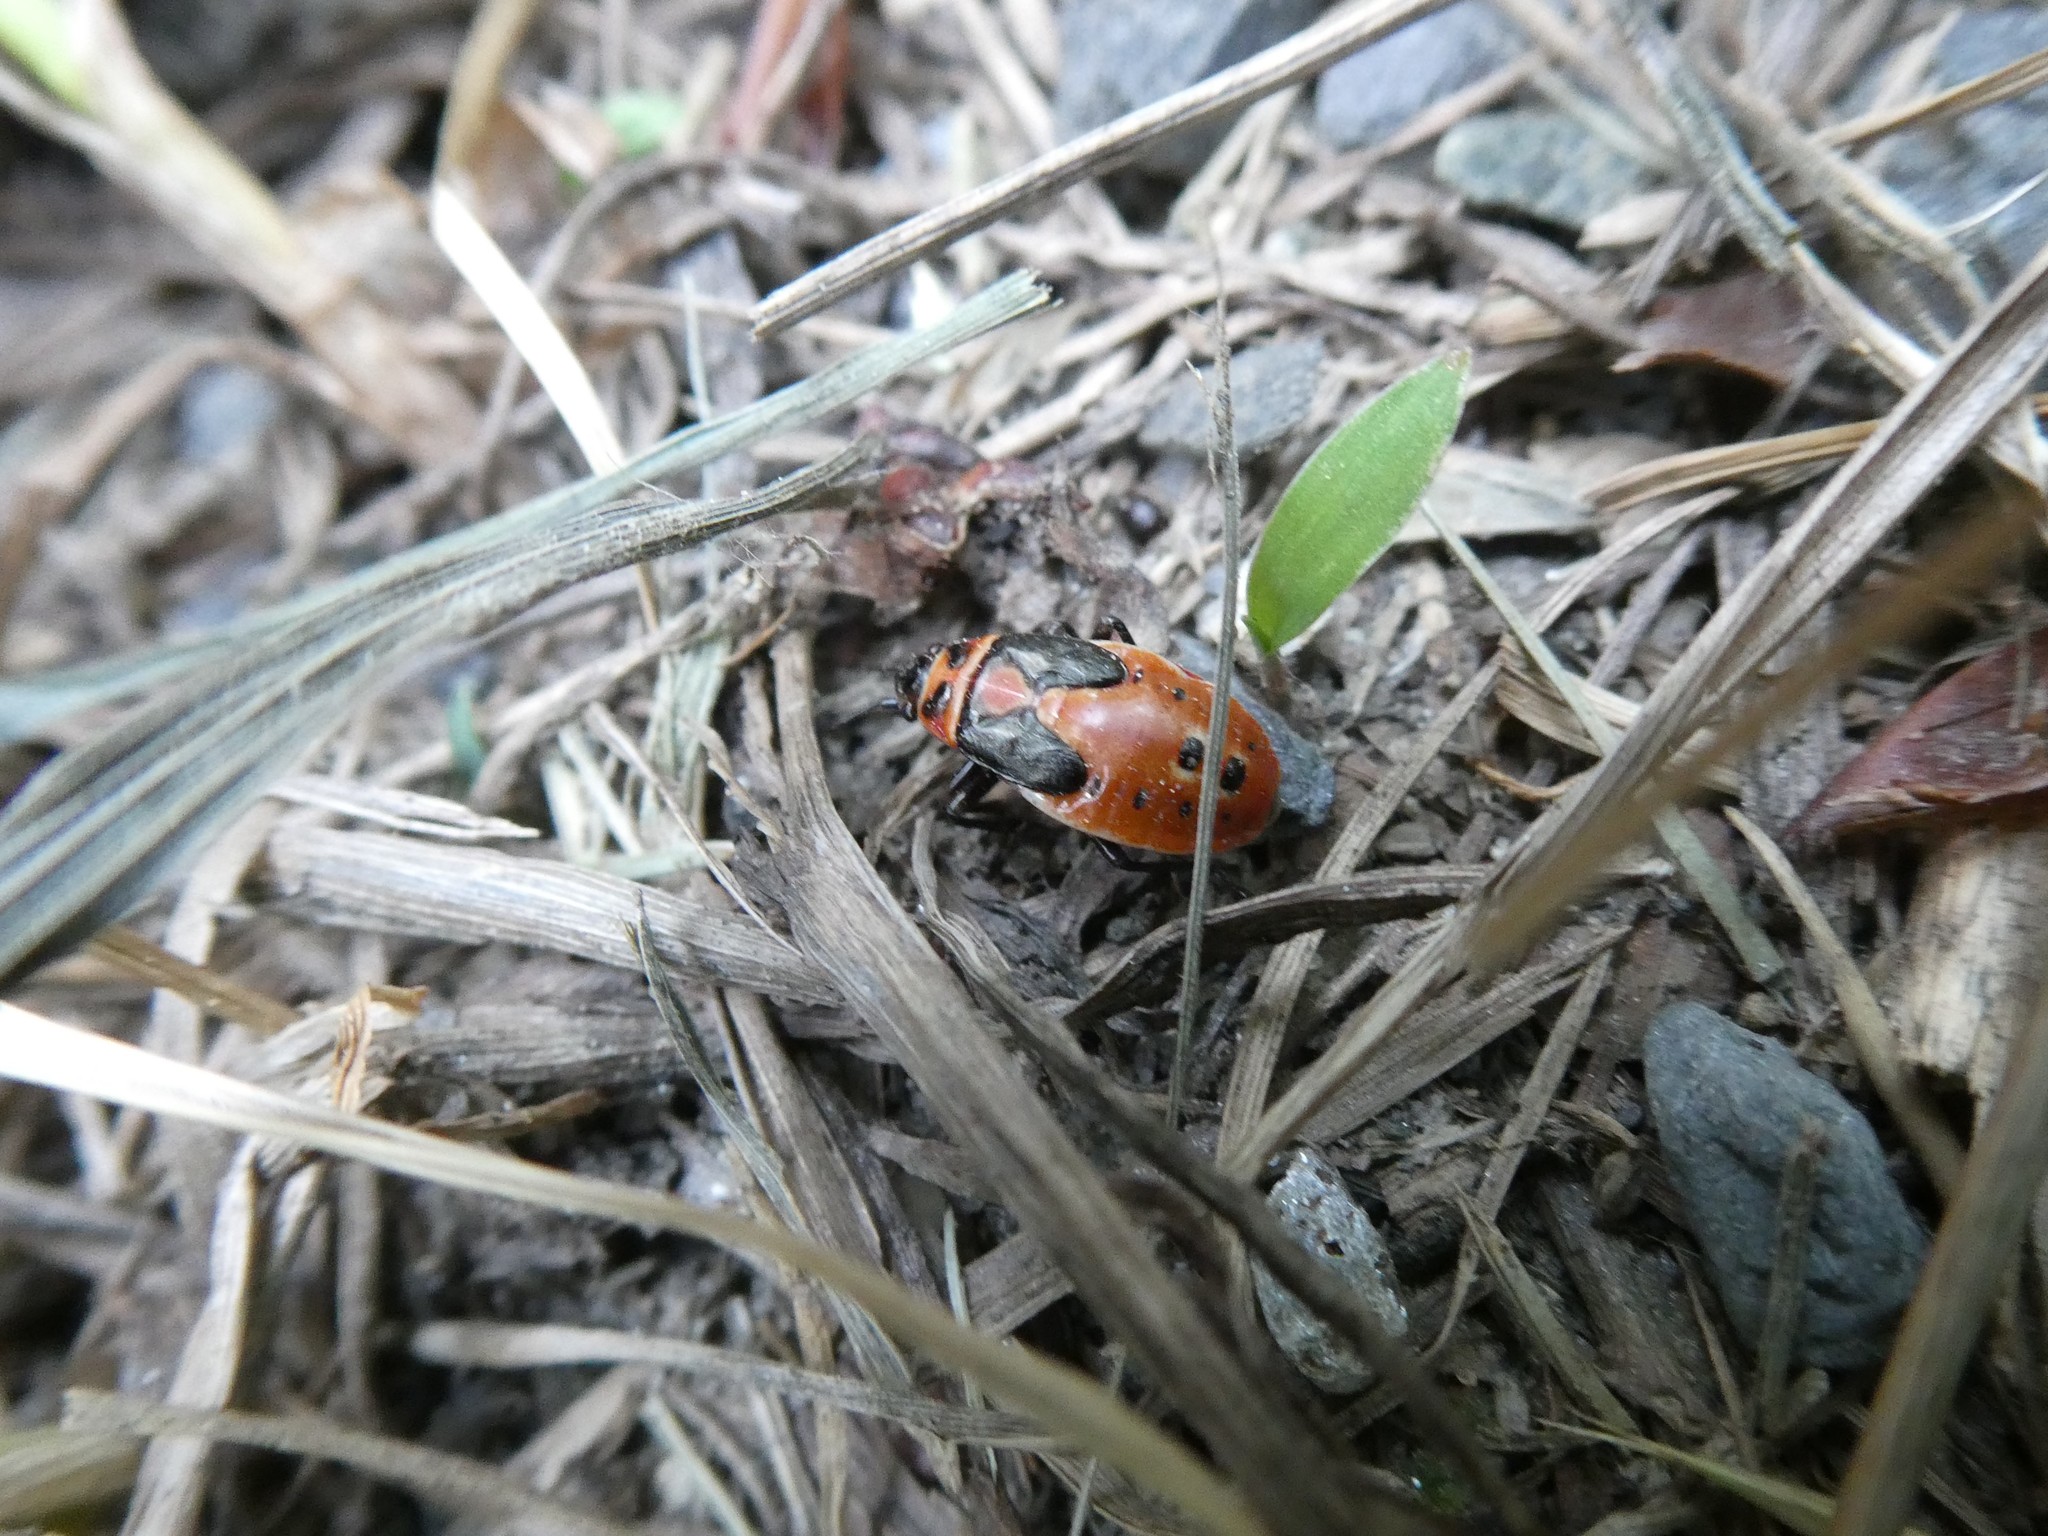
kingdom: Animalia
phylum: Arthropoda
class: Insecta
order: Hemiptera
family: Lygaeidae
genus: Lygaeus
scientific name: Lygaeus kalmii
